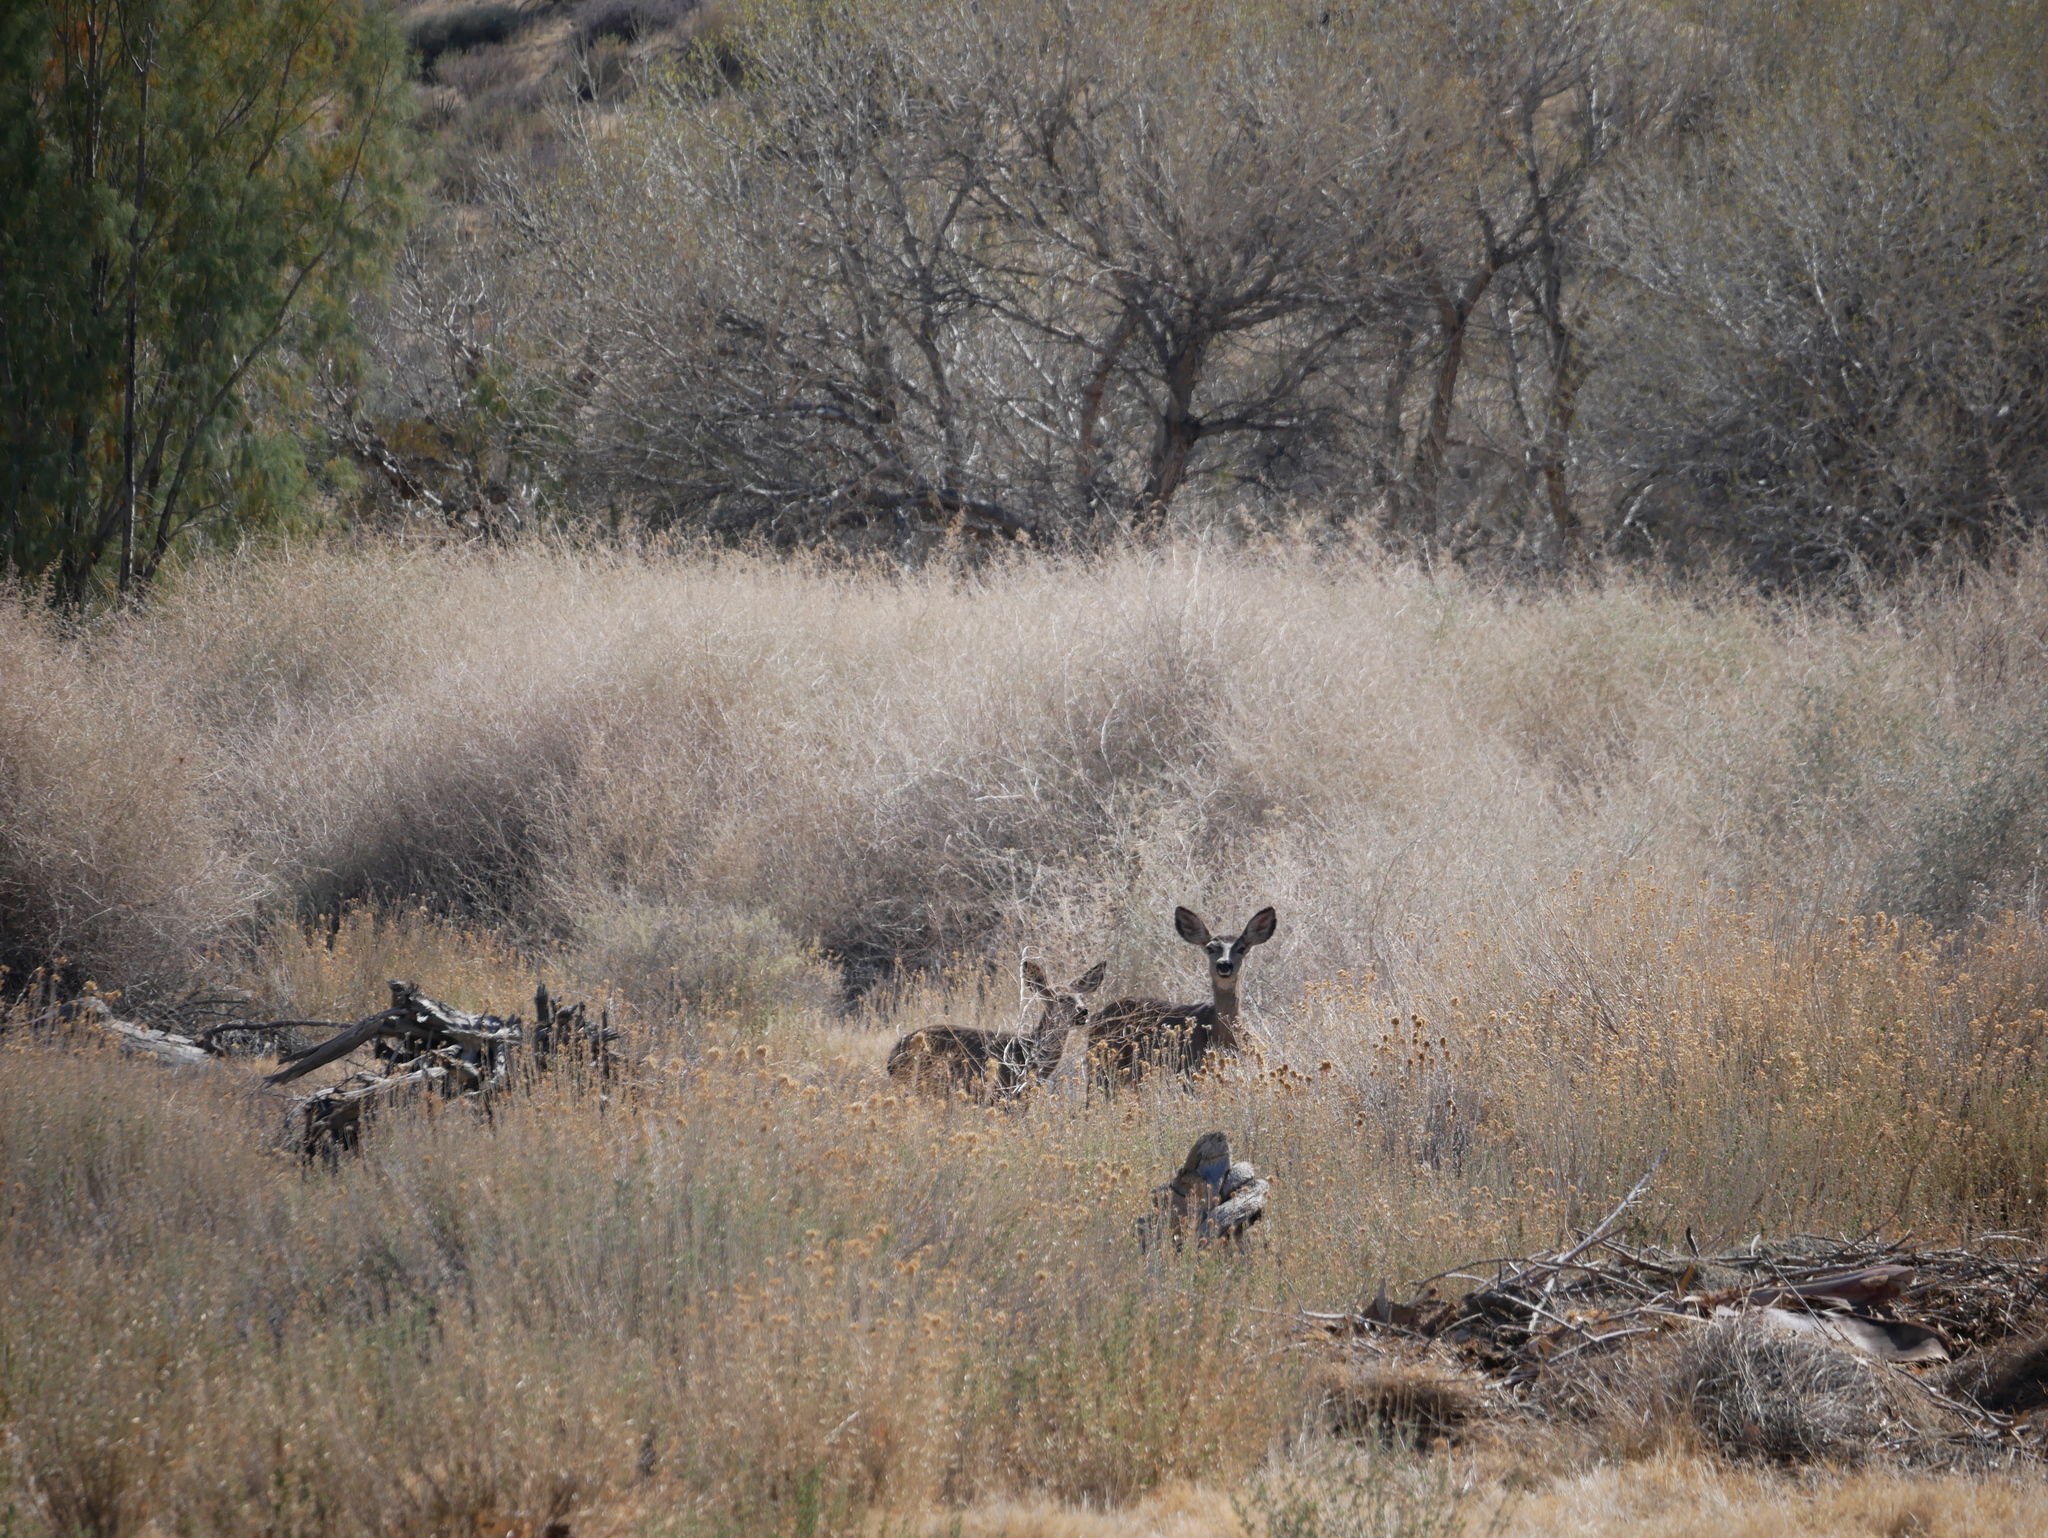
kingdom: Animalia
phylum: Chordata
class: Mammalia
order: Artiodactyla
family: Cervidae
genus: Odocoileus
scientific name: Odocoileus hemionus
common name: Mule deer
